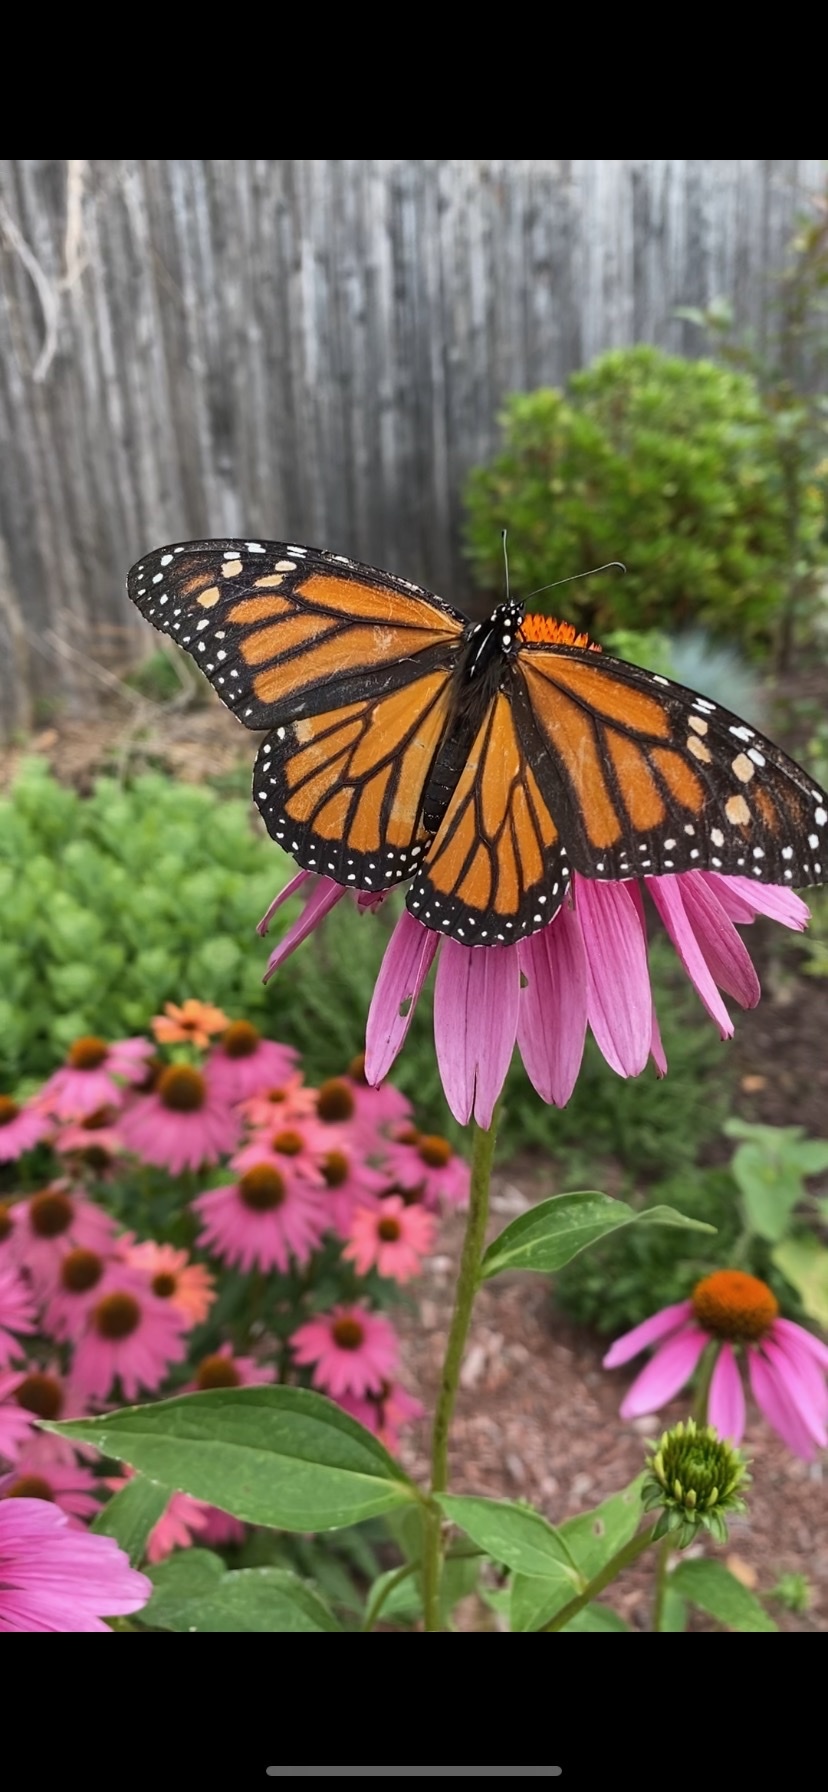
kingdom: Animalia
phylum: Arthropoda
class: Insecta
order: Lepidoptera
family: Nymphalidae
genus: Danaus
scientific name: Danaus plexippus
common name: Monarch
